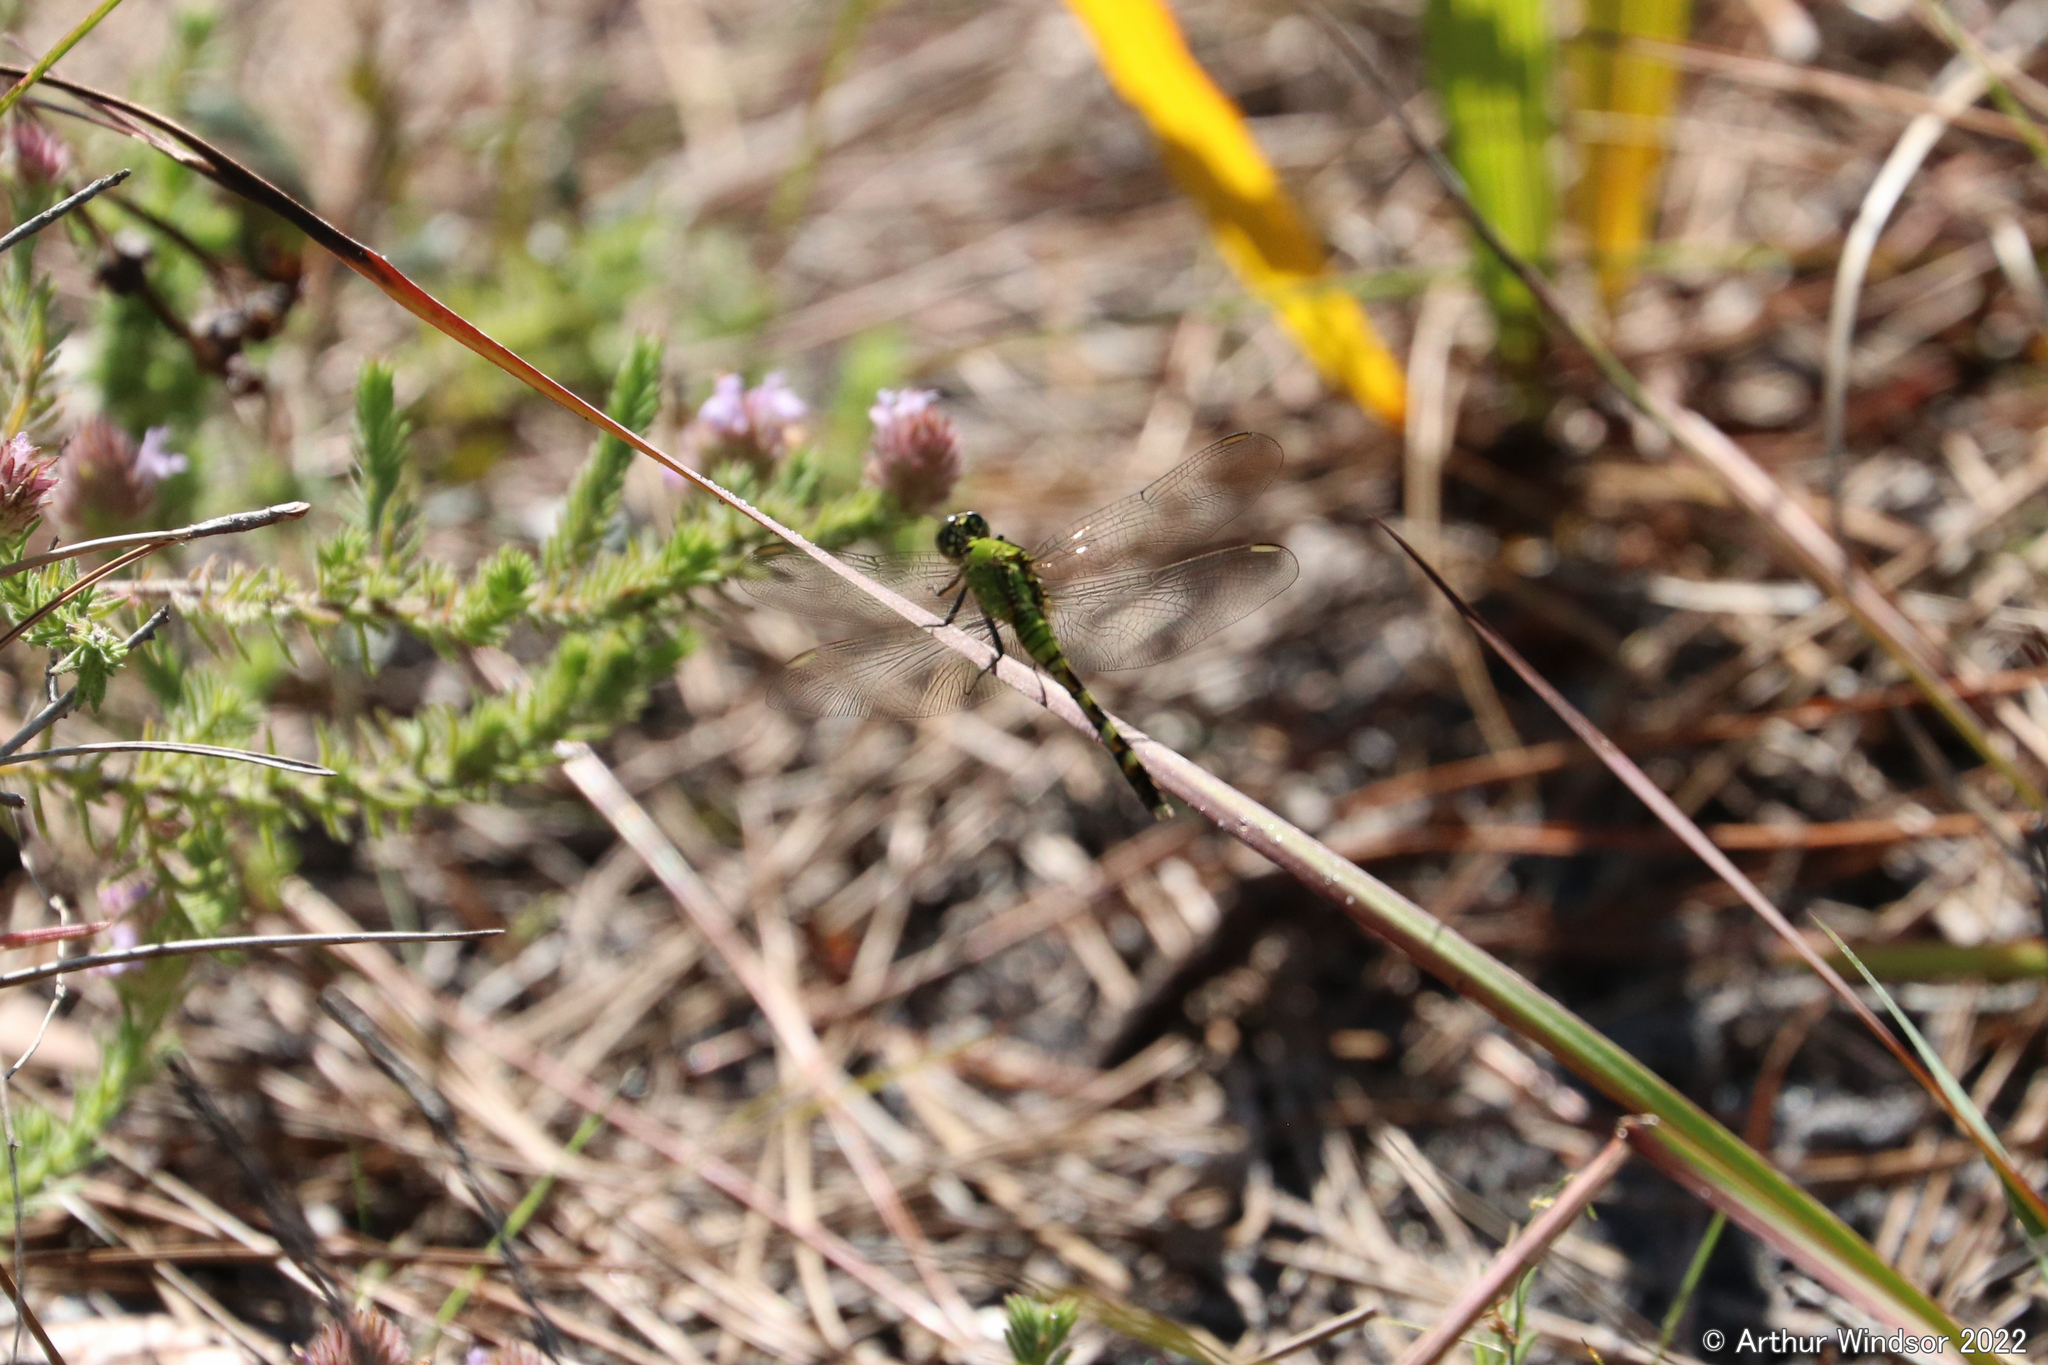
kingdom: Animalia
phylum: Arthropoda
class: Insecta
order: Odonata
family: Libellulidae
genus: Erythemis
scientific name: Erythemis simplicicollis
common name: Eastern pondhawk
